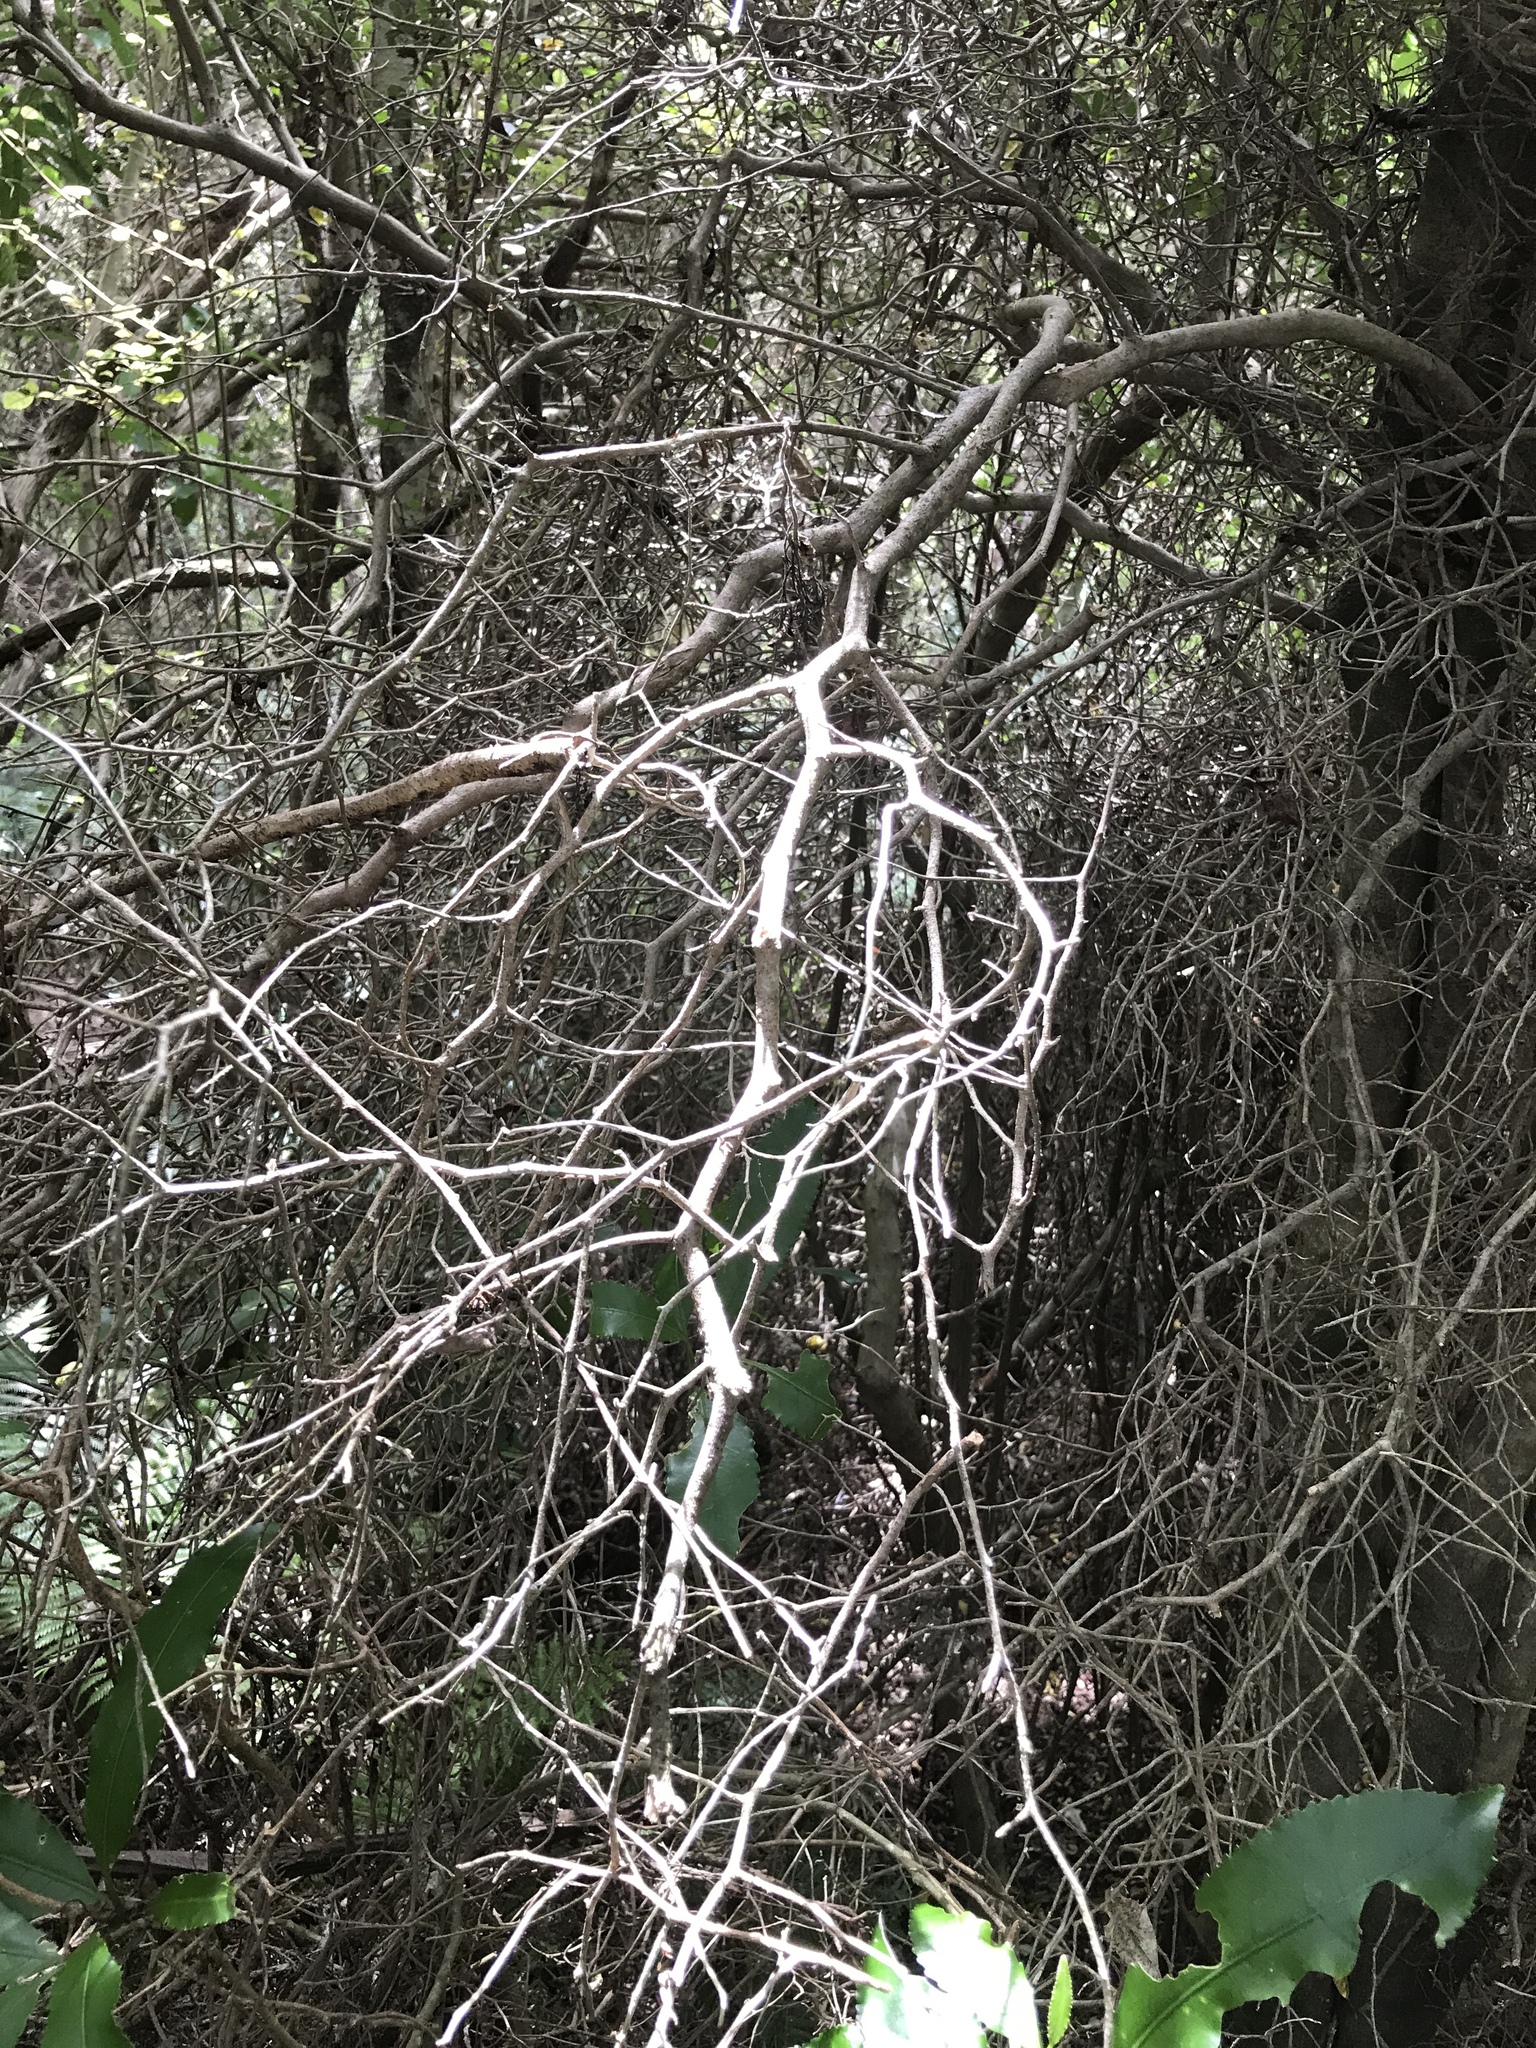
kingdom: Plantae
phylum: Tracheophyta
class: Magnoliopsida
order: Apiales
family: Pennantiaceae
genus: Pennantia
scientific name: Pennantia corymbosa
